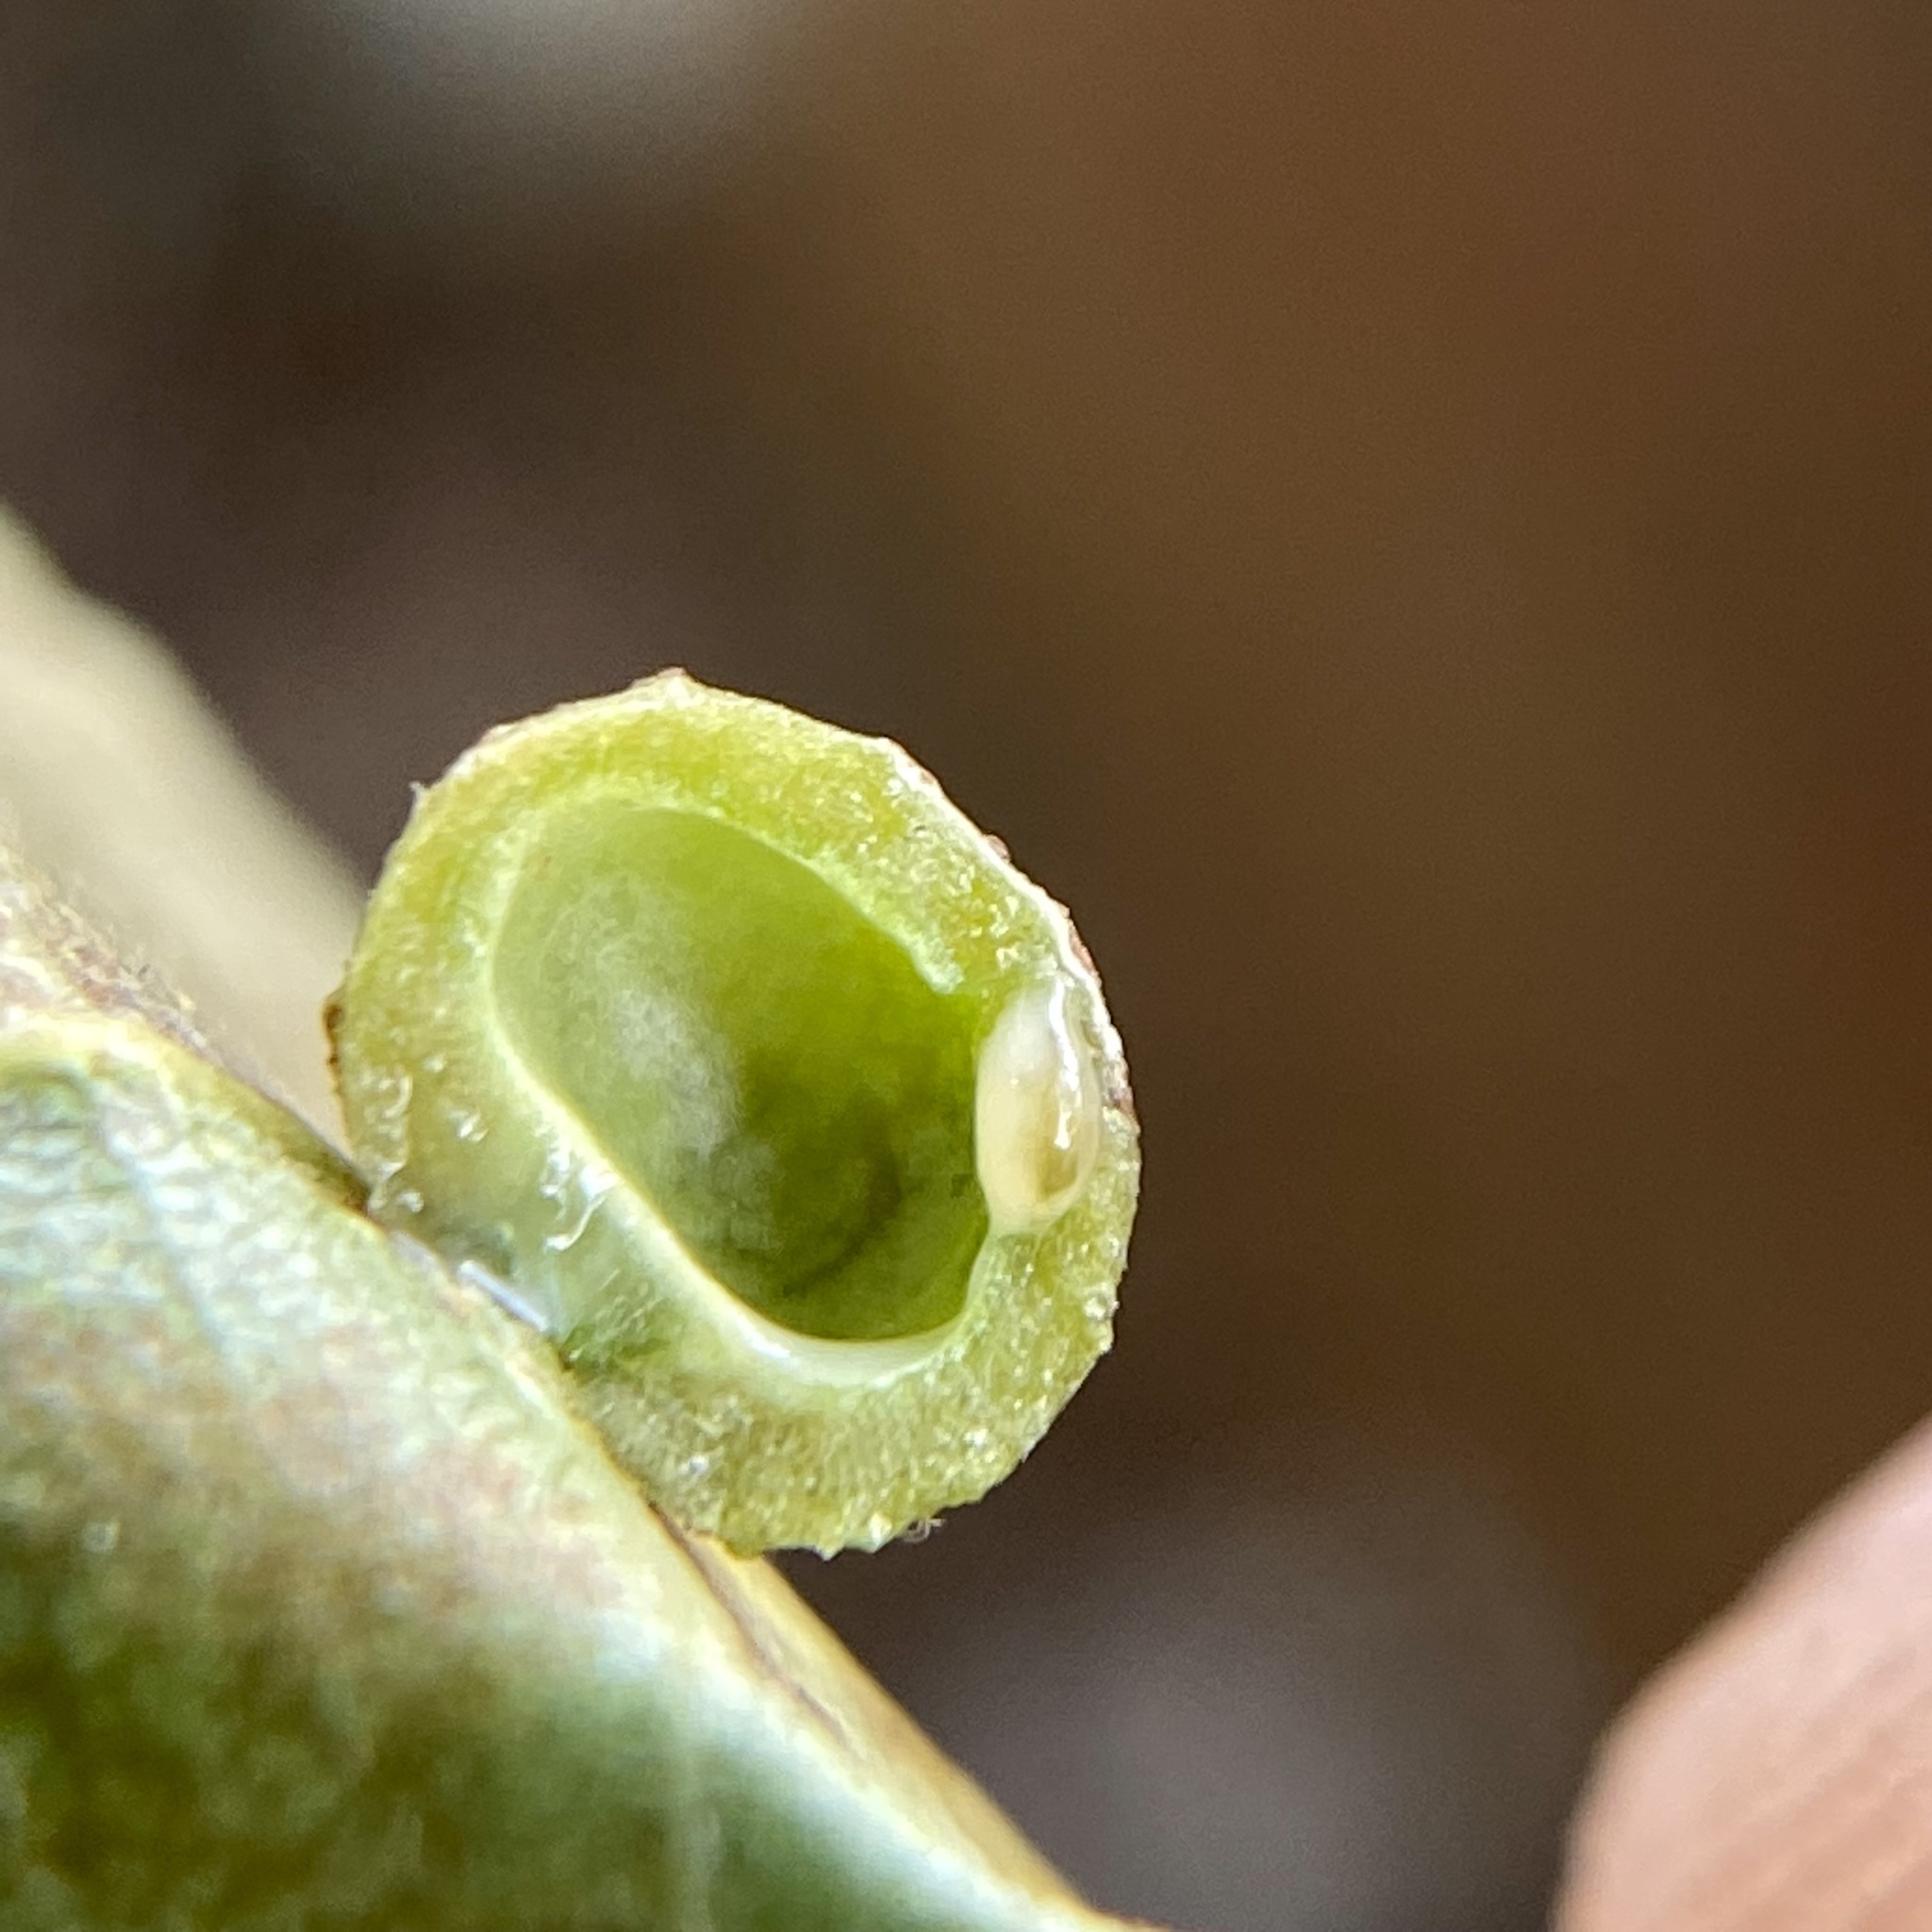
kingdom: Animalia
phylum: Arthropoda
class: Insecta
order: Diptera
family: Cecidomyiidae
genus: Caryomyia
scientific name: Caryomyia tuberculata
